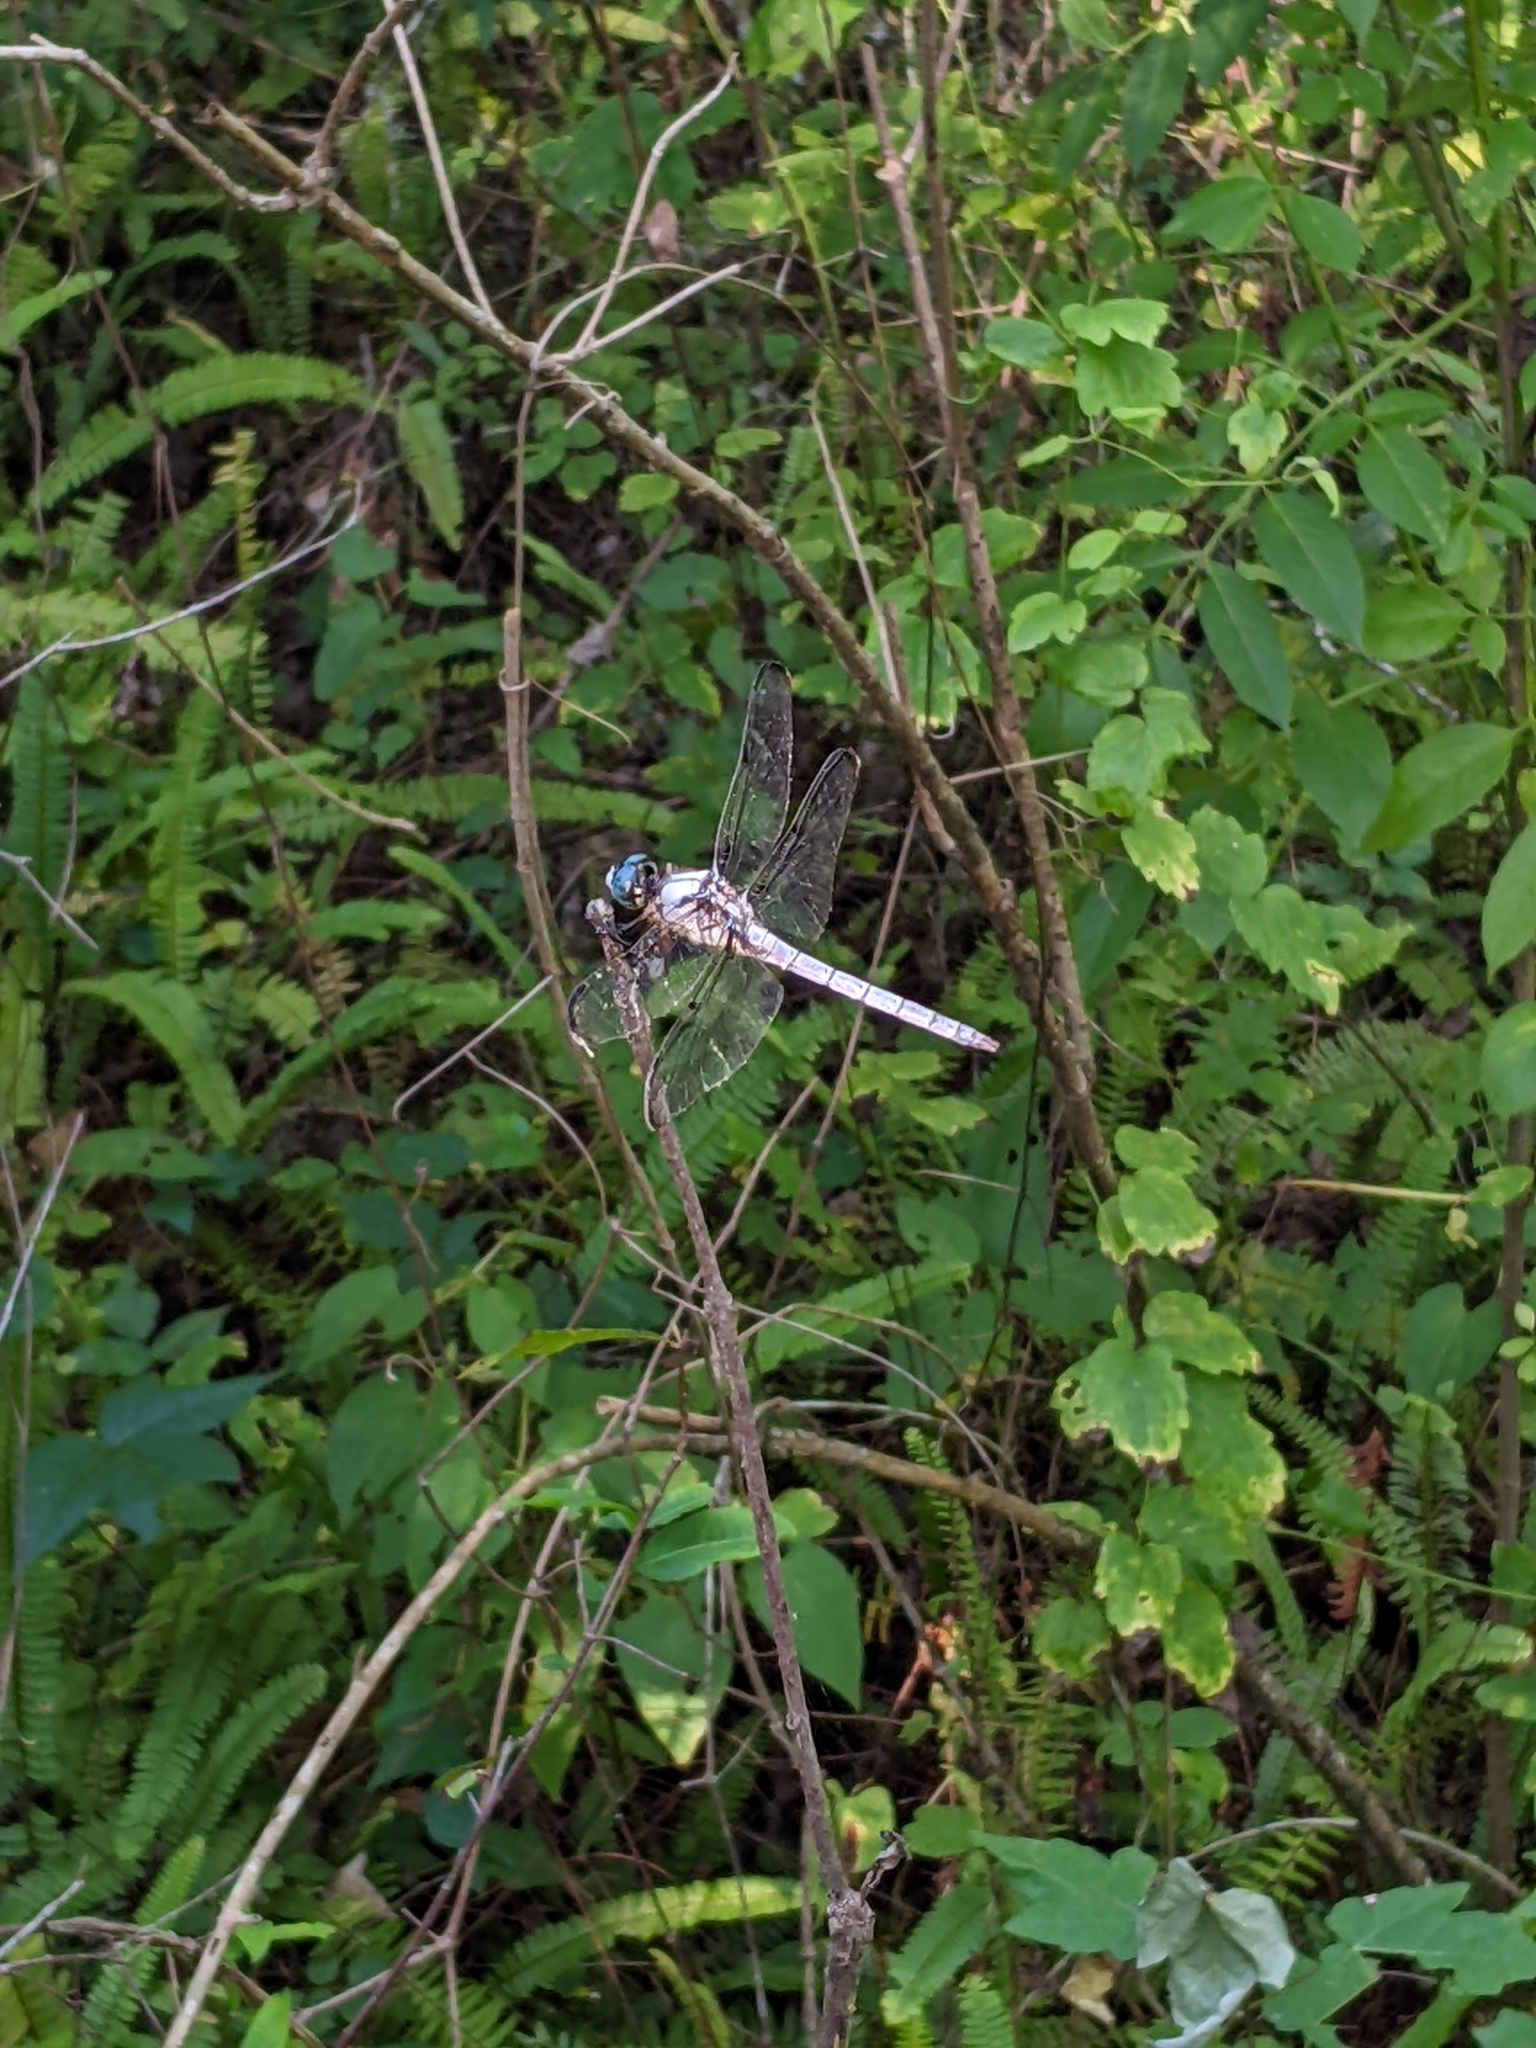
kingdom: Animalia
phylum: Arthropoda
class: Insecta
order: Odonata
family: Libellulidae
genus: Libellula
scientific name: Libellula vibrans
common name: Great blue skimmer
